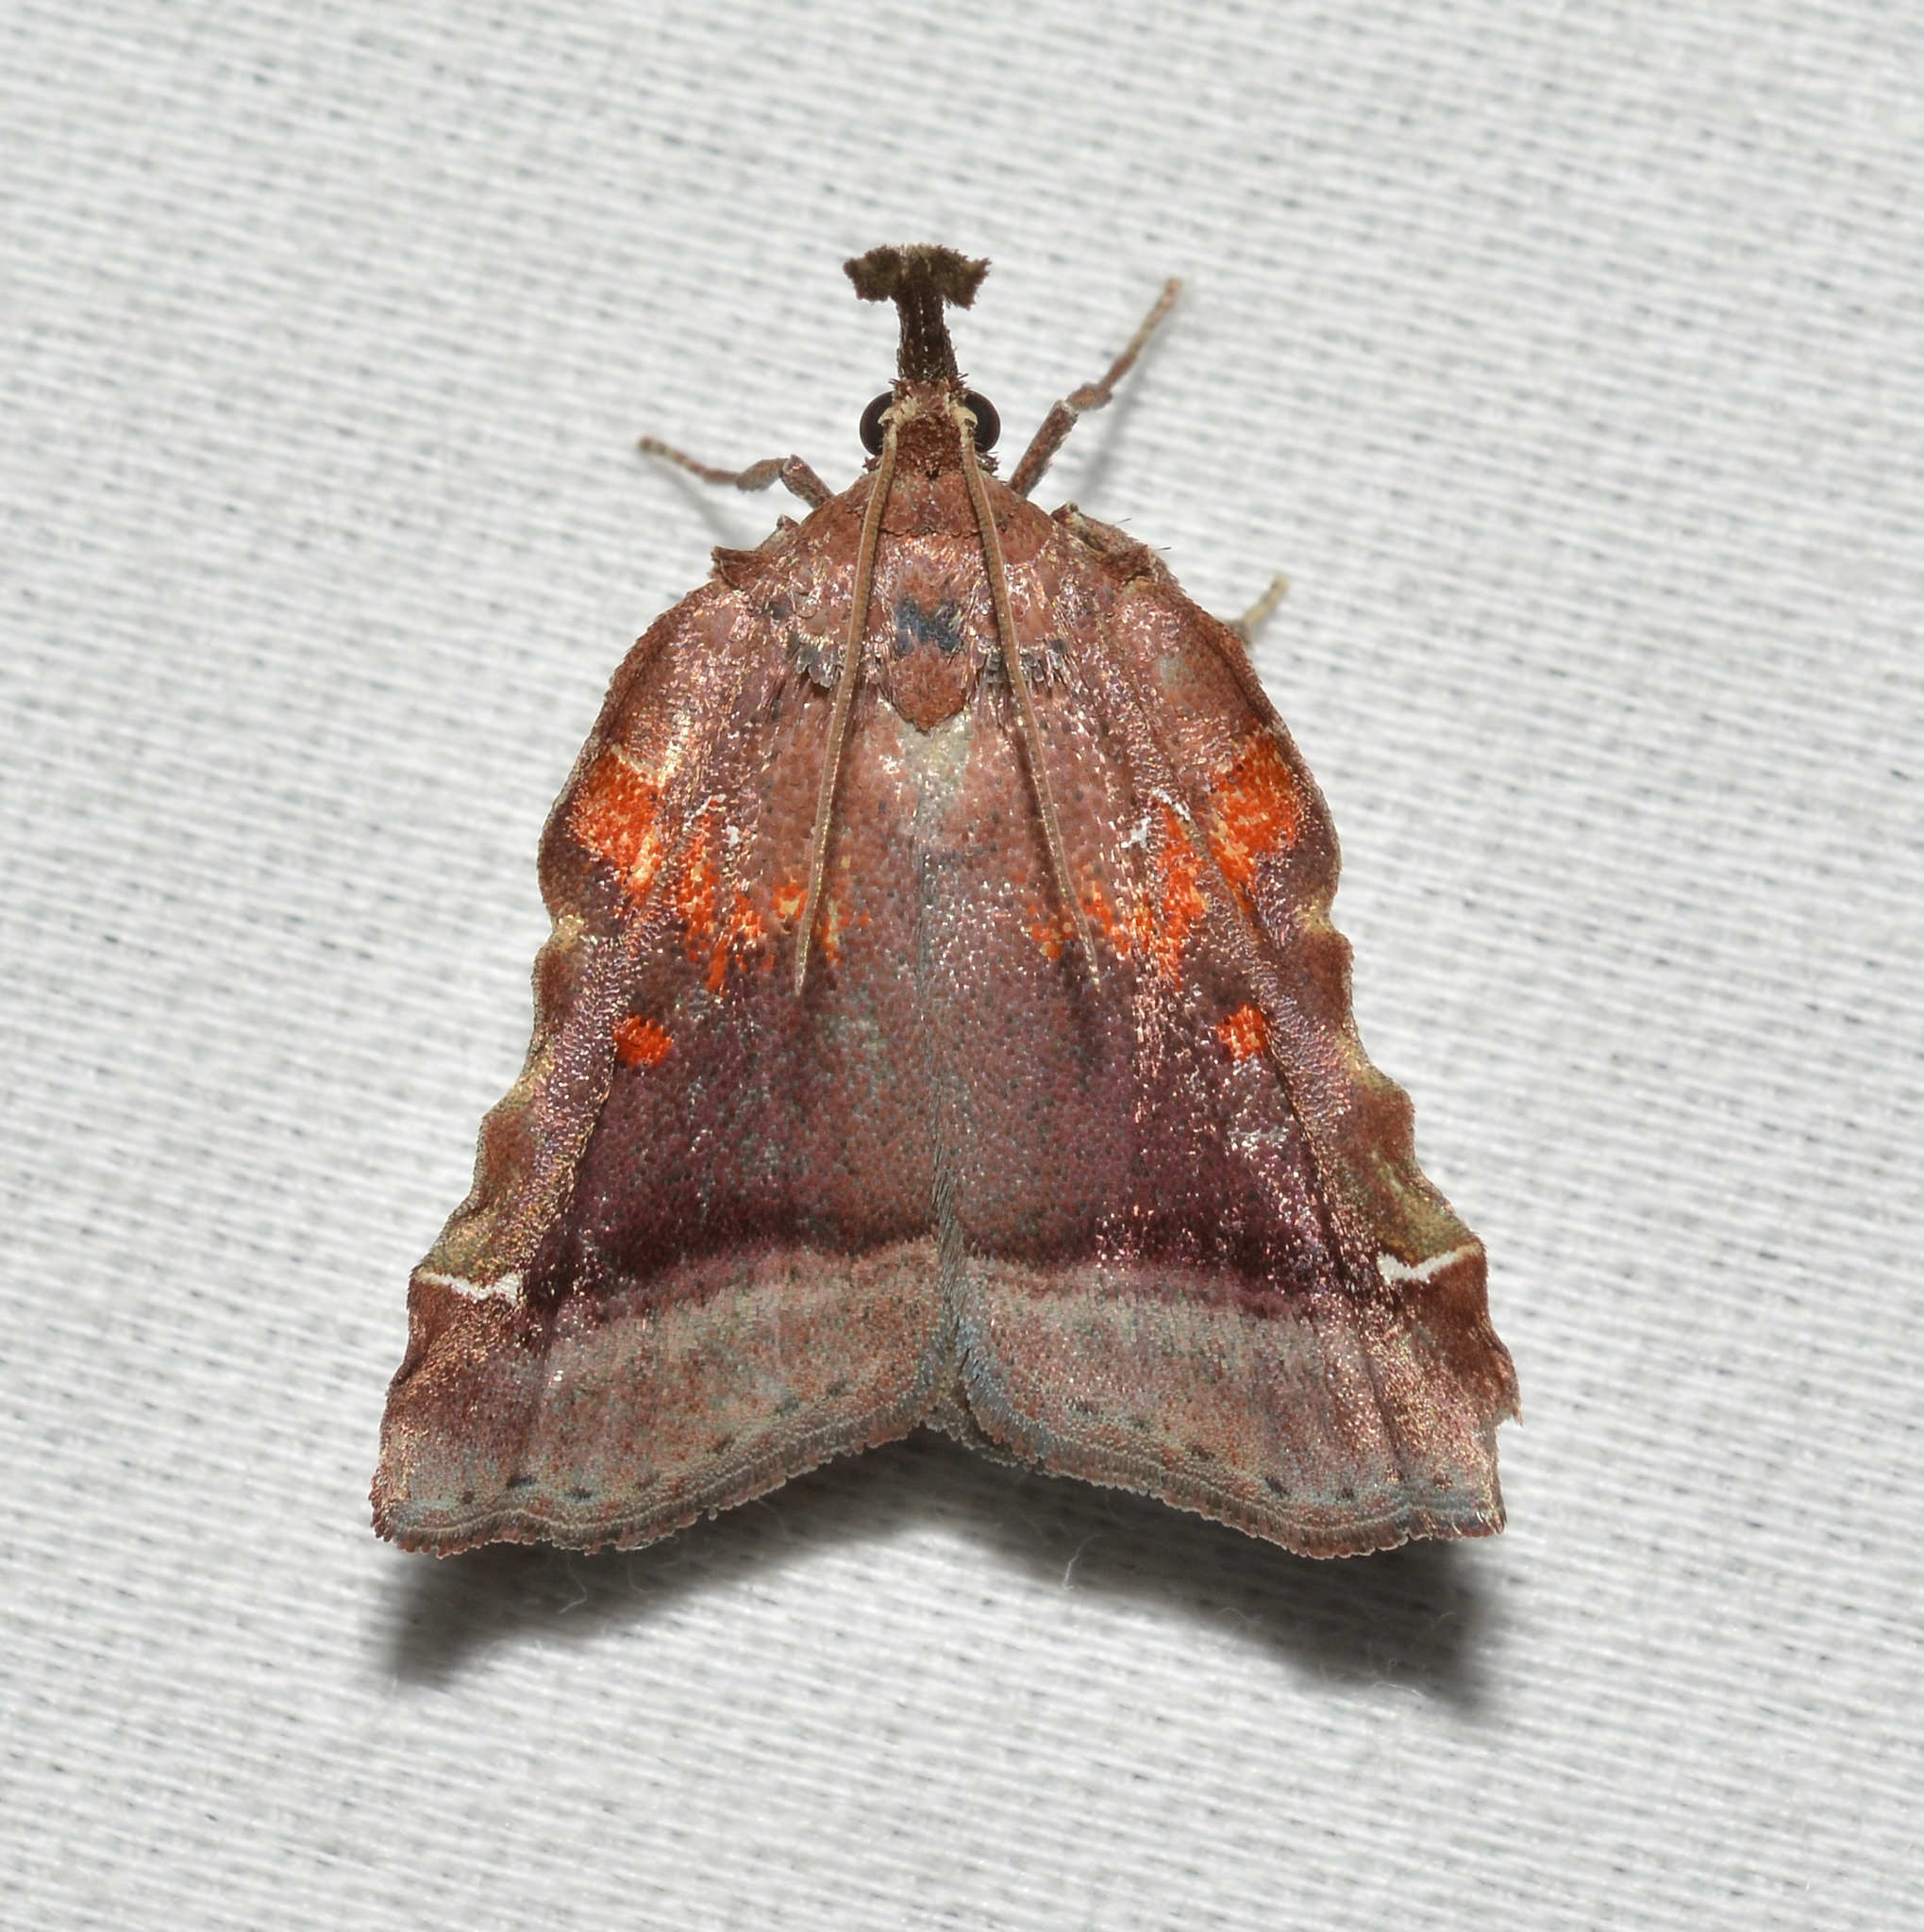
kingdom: Animalia
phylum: Arthropoda
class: Insecta
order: Lepidoptera
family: Pyralidae
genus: Clydonopteron
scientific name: Clydonopteron sacculana
